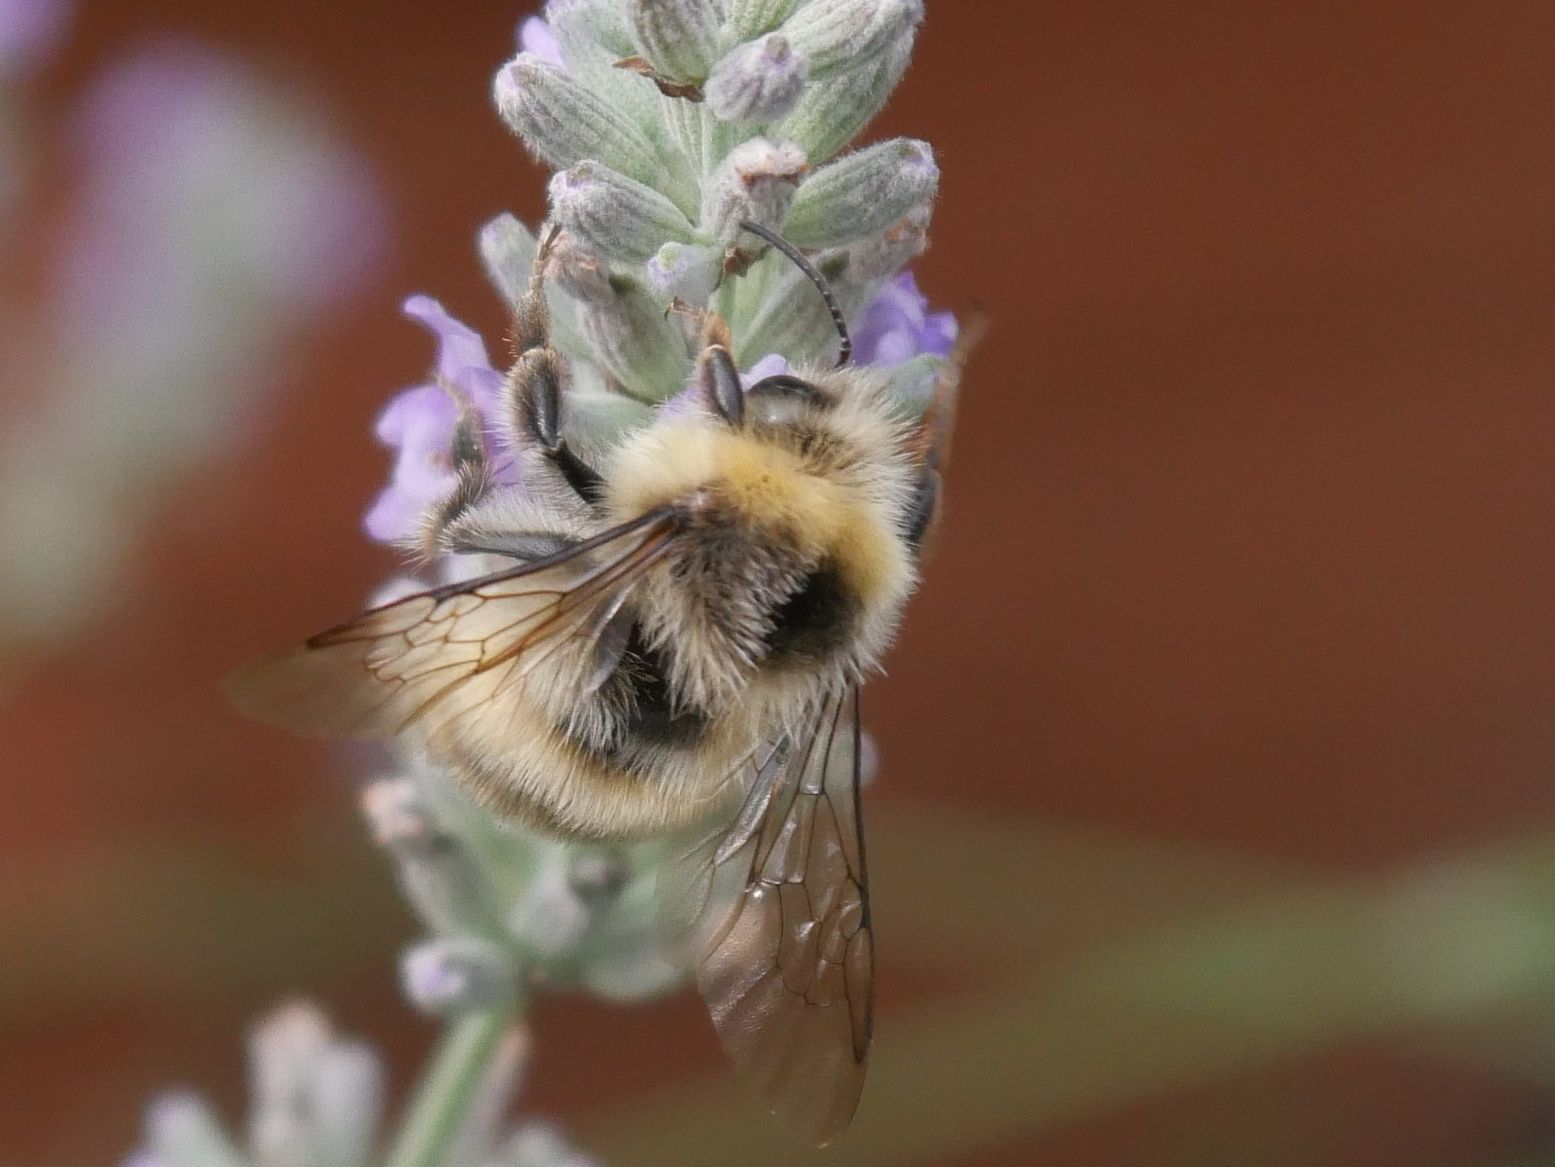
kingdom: Animalia
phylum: Arthropoda
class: Insecta
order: Hymenoptera
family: Apidae
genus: Bombus
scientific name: Bombus lucorum
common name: White-tailed bumblebee
